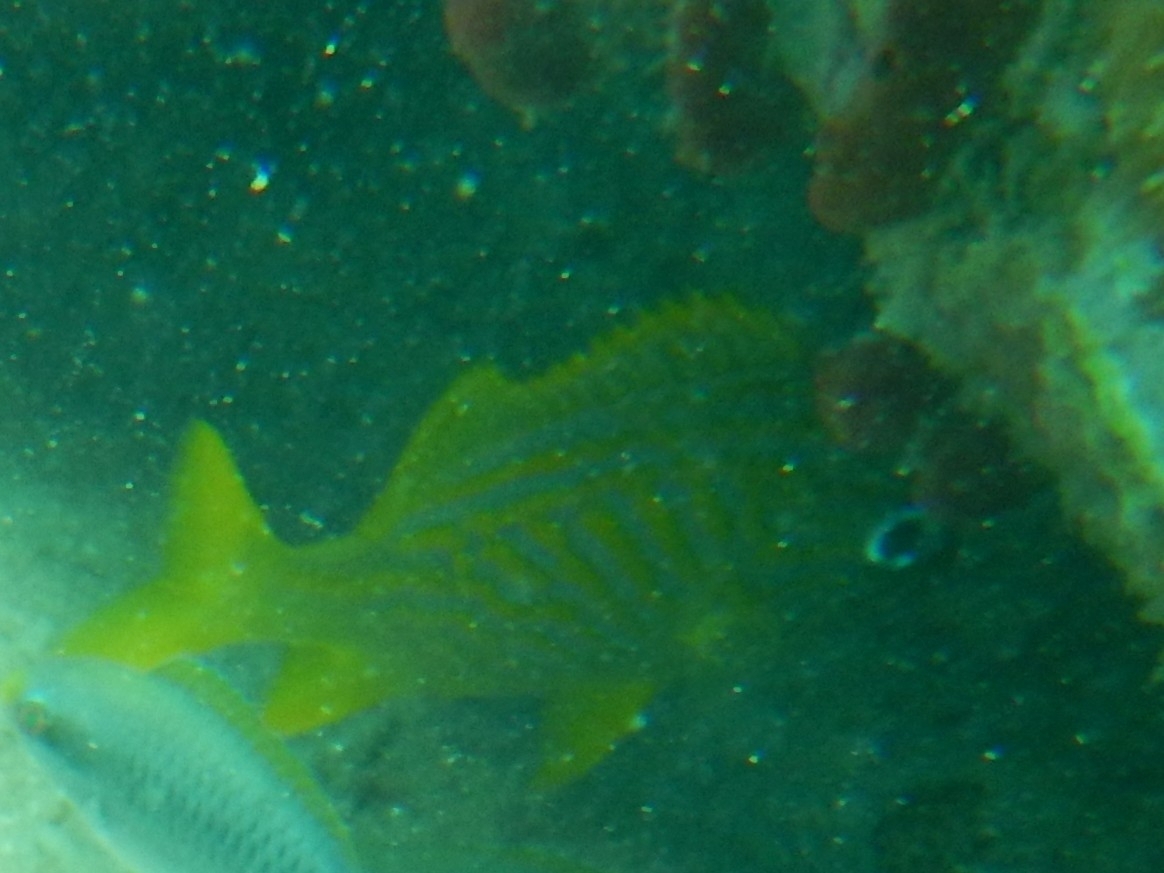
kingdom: Animalia
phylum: Chordata
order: Perciformes
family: Haemulidae
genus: Haemulon
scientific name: Haemulon flavolineatum
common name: French grunt
